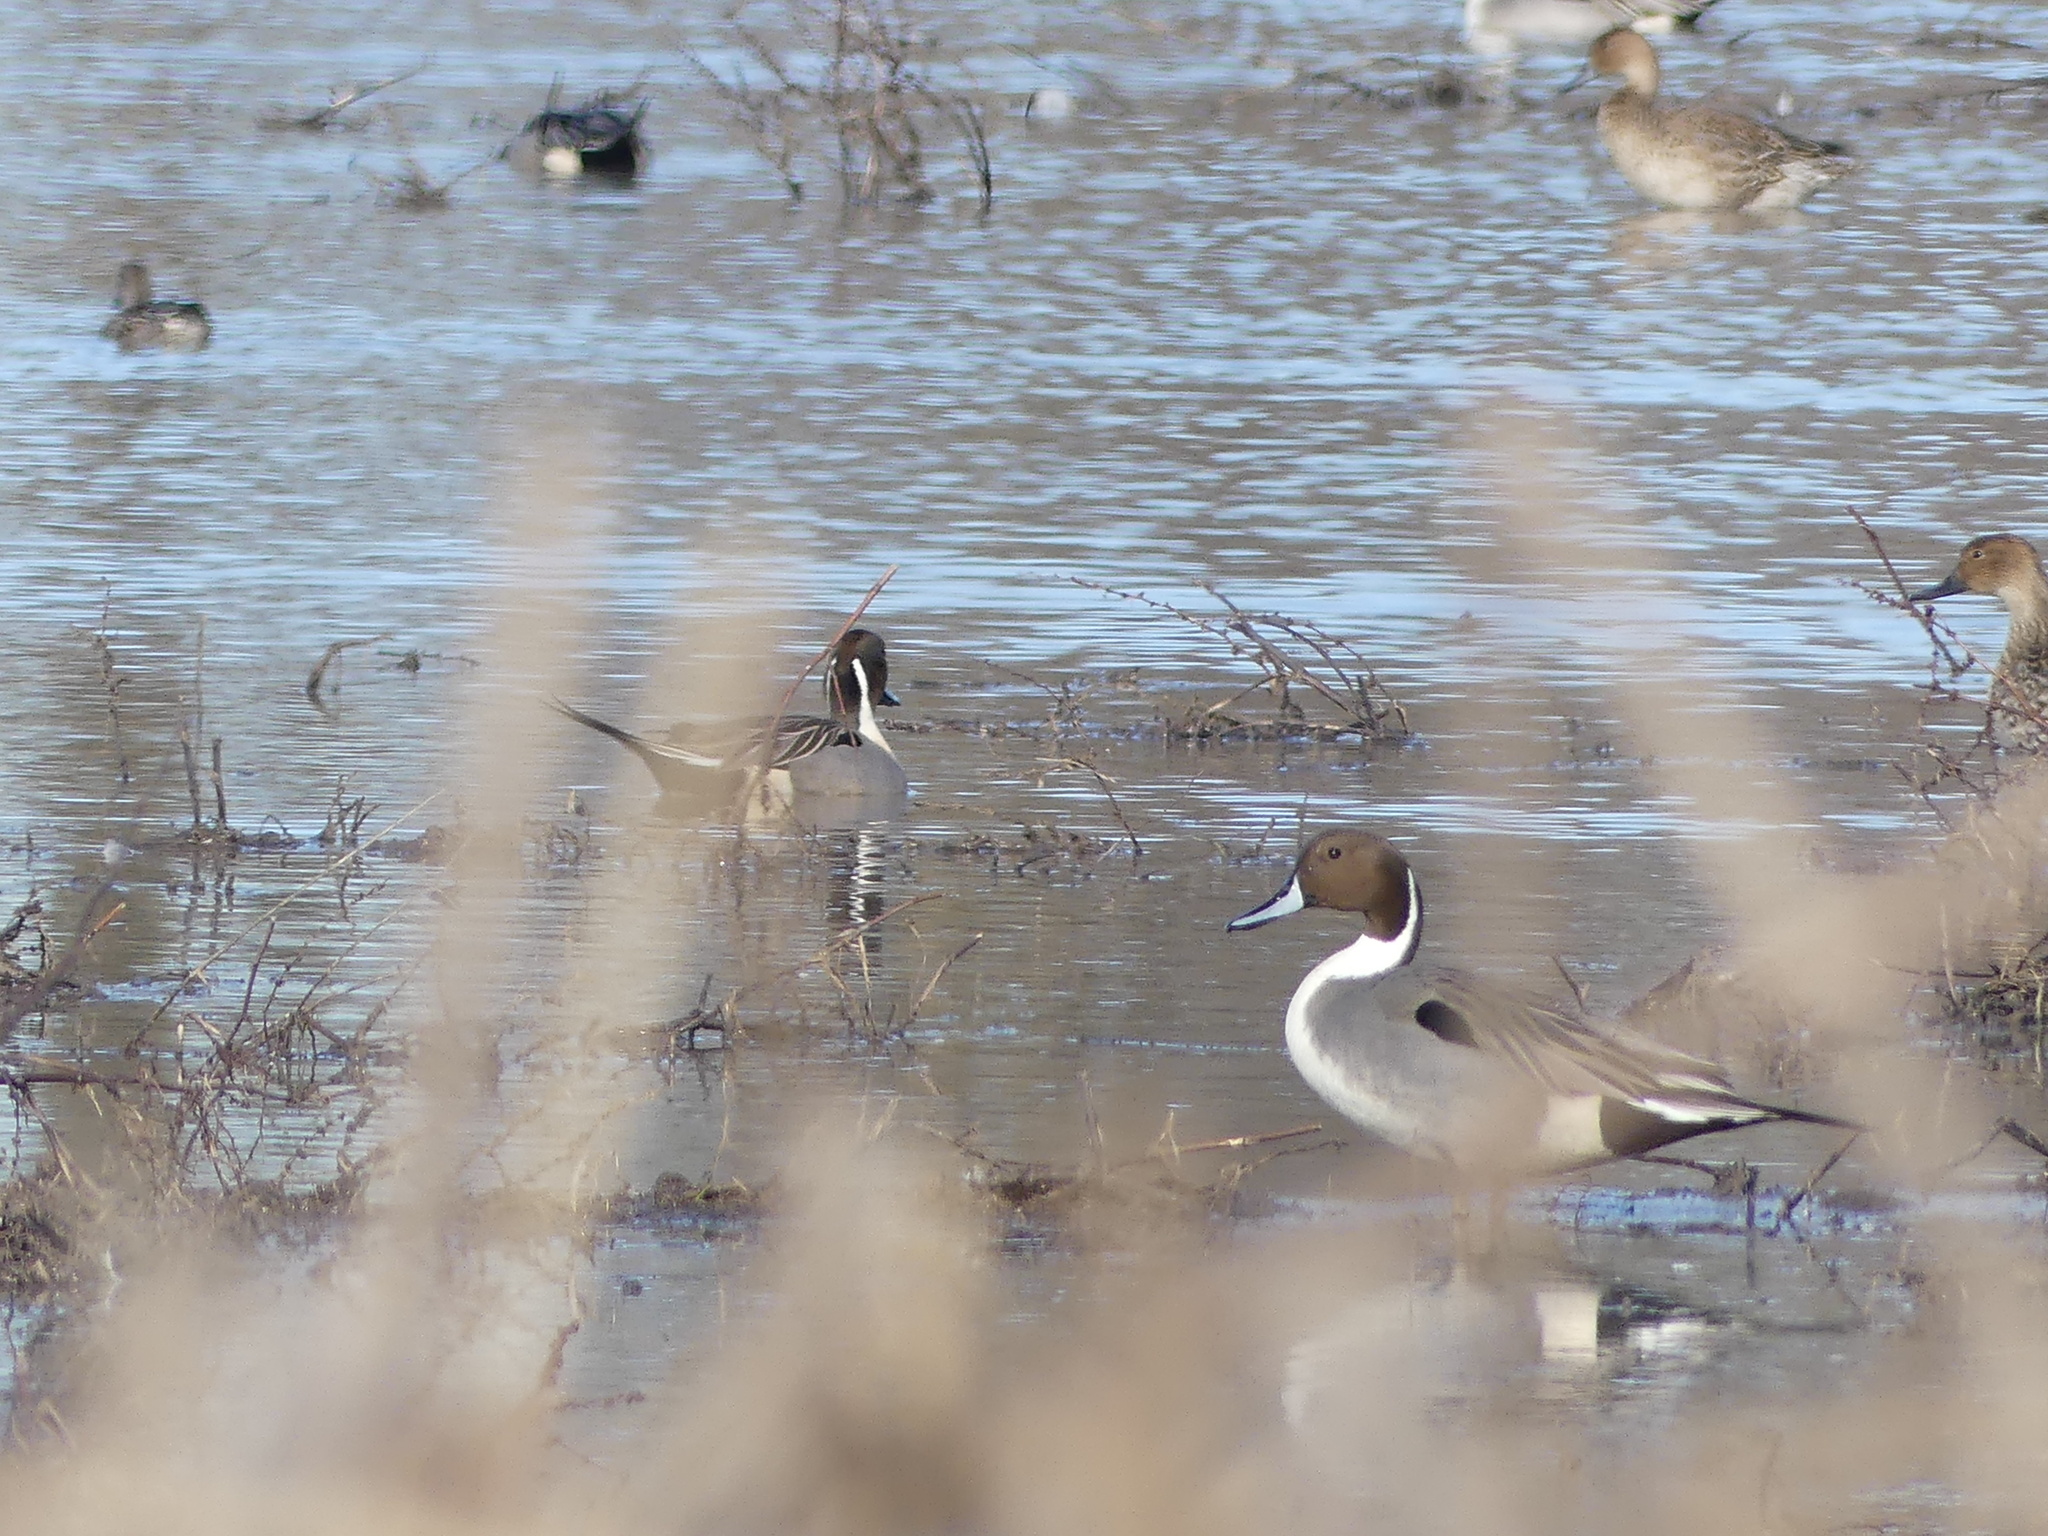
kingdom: Animalia
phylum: Chordata
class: Aves
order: Anseriformes
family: Anatidae
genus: Anas
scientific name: Anas acuta
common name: Northern pintail
